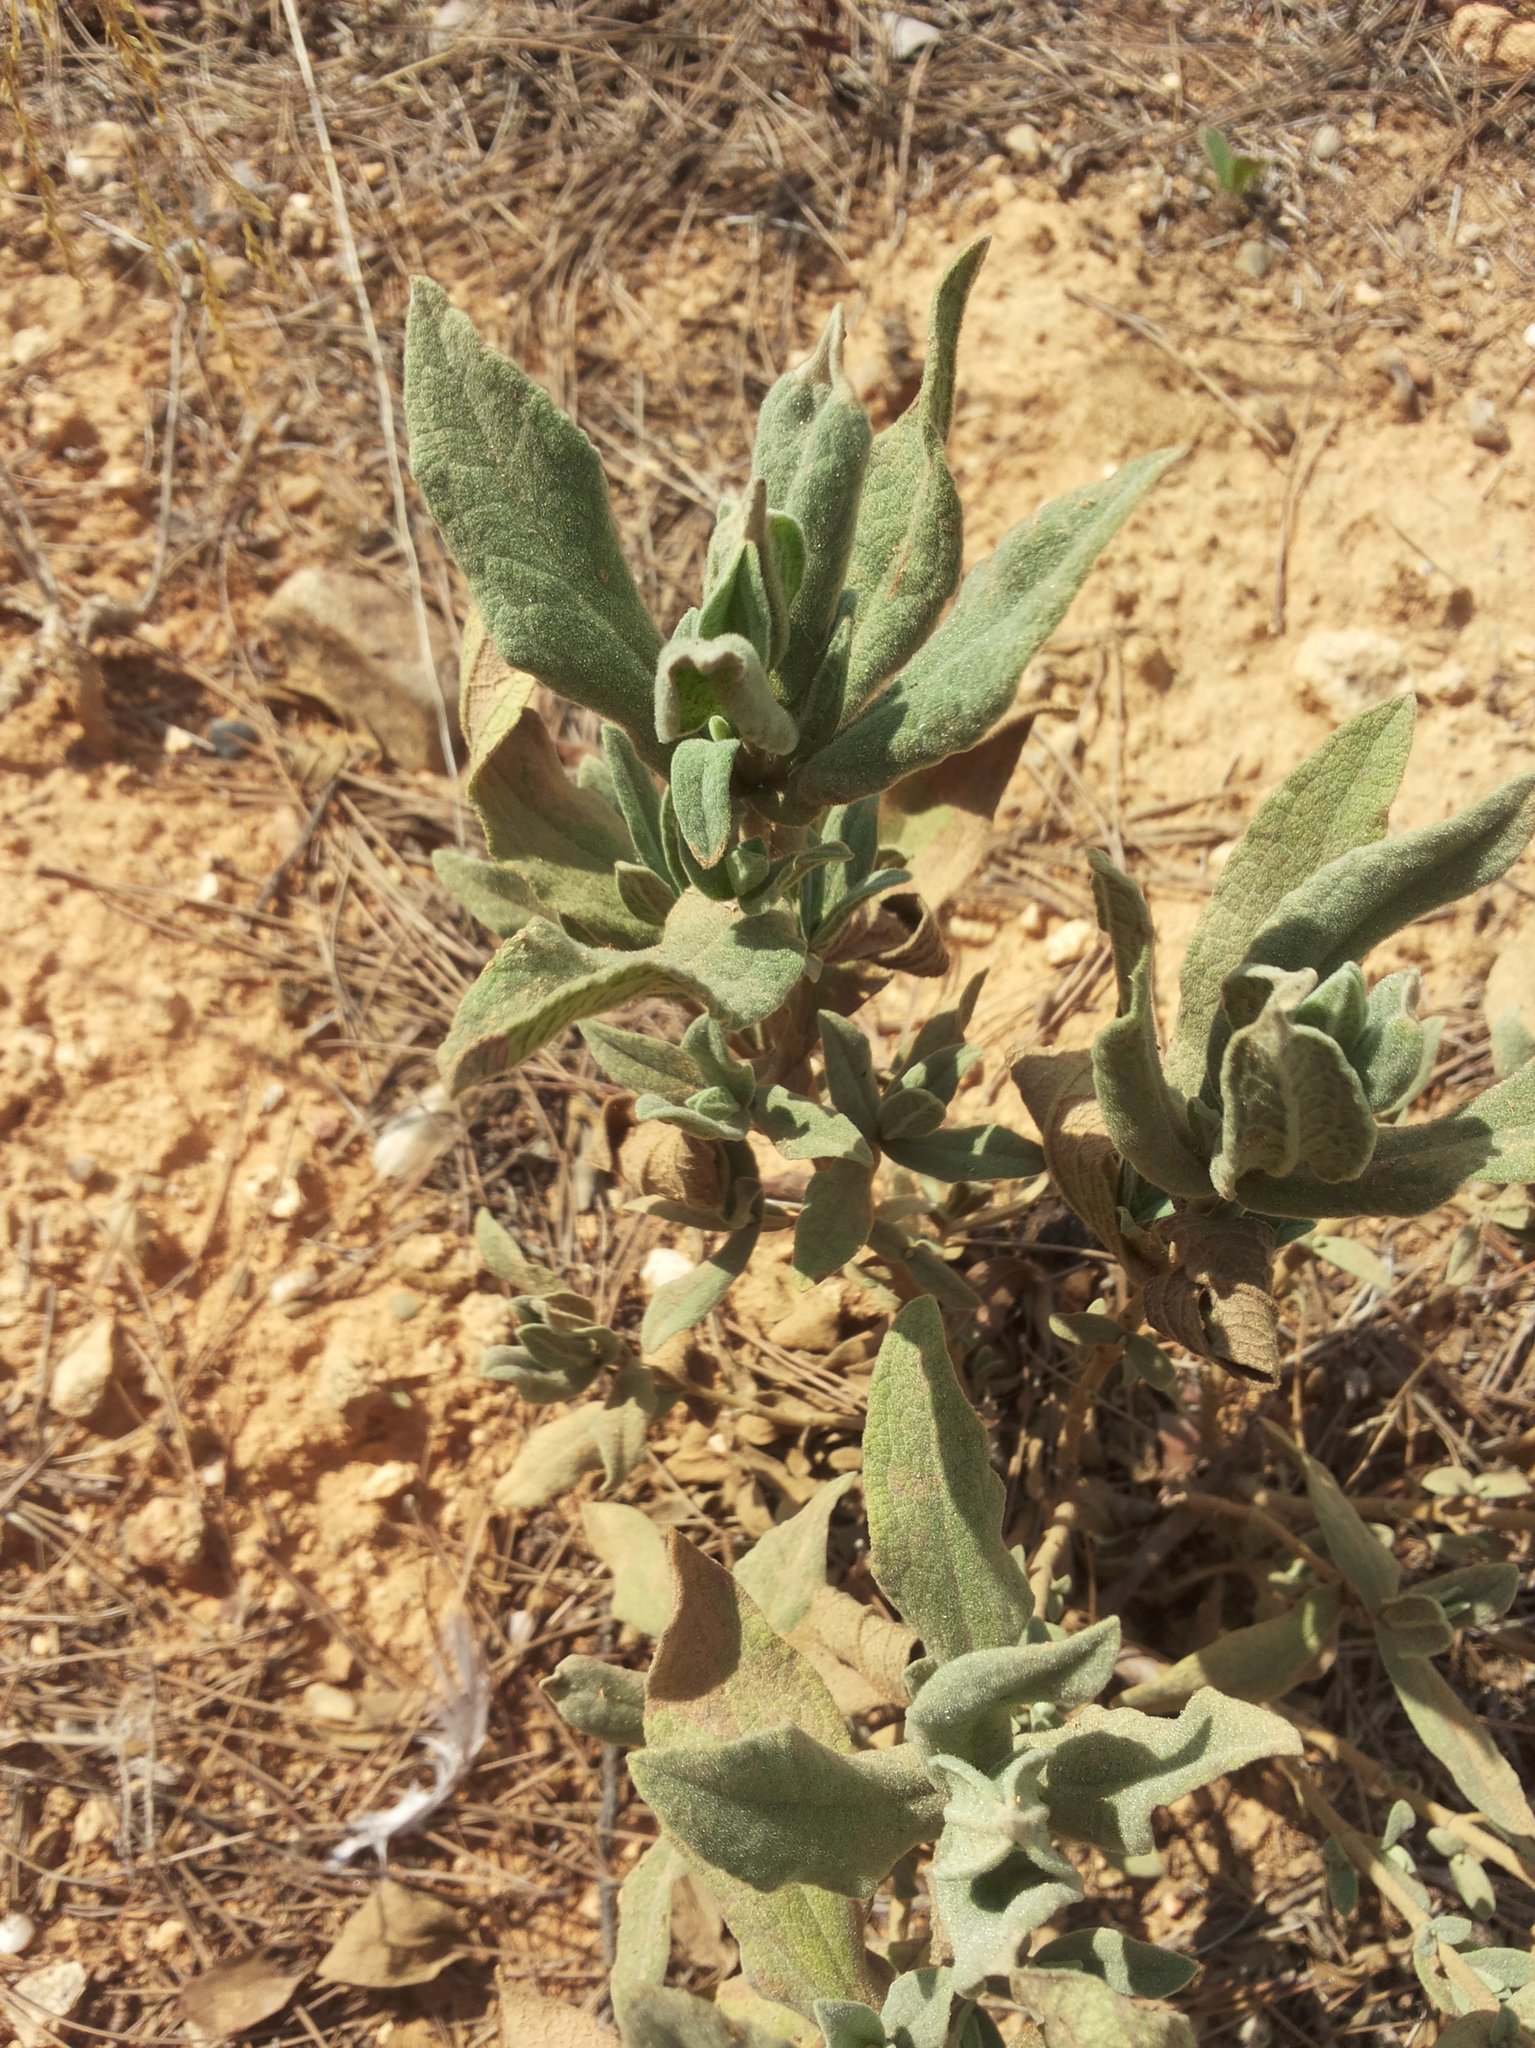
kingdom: Plantae
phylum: Tracheophyta
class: Magnoliopsida
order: Malvales
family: Cistaceae
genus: Cistus
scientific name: Cistus albidus
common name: White-leaf rock-rose
